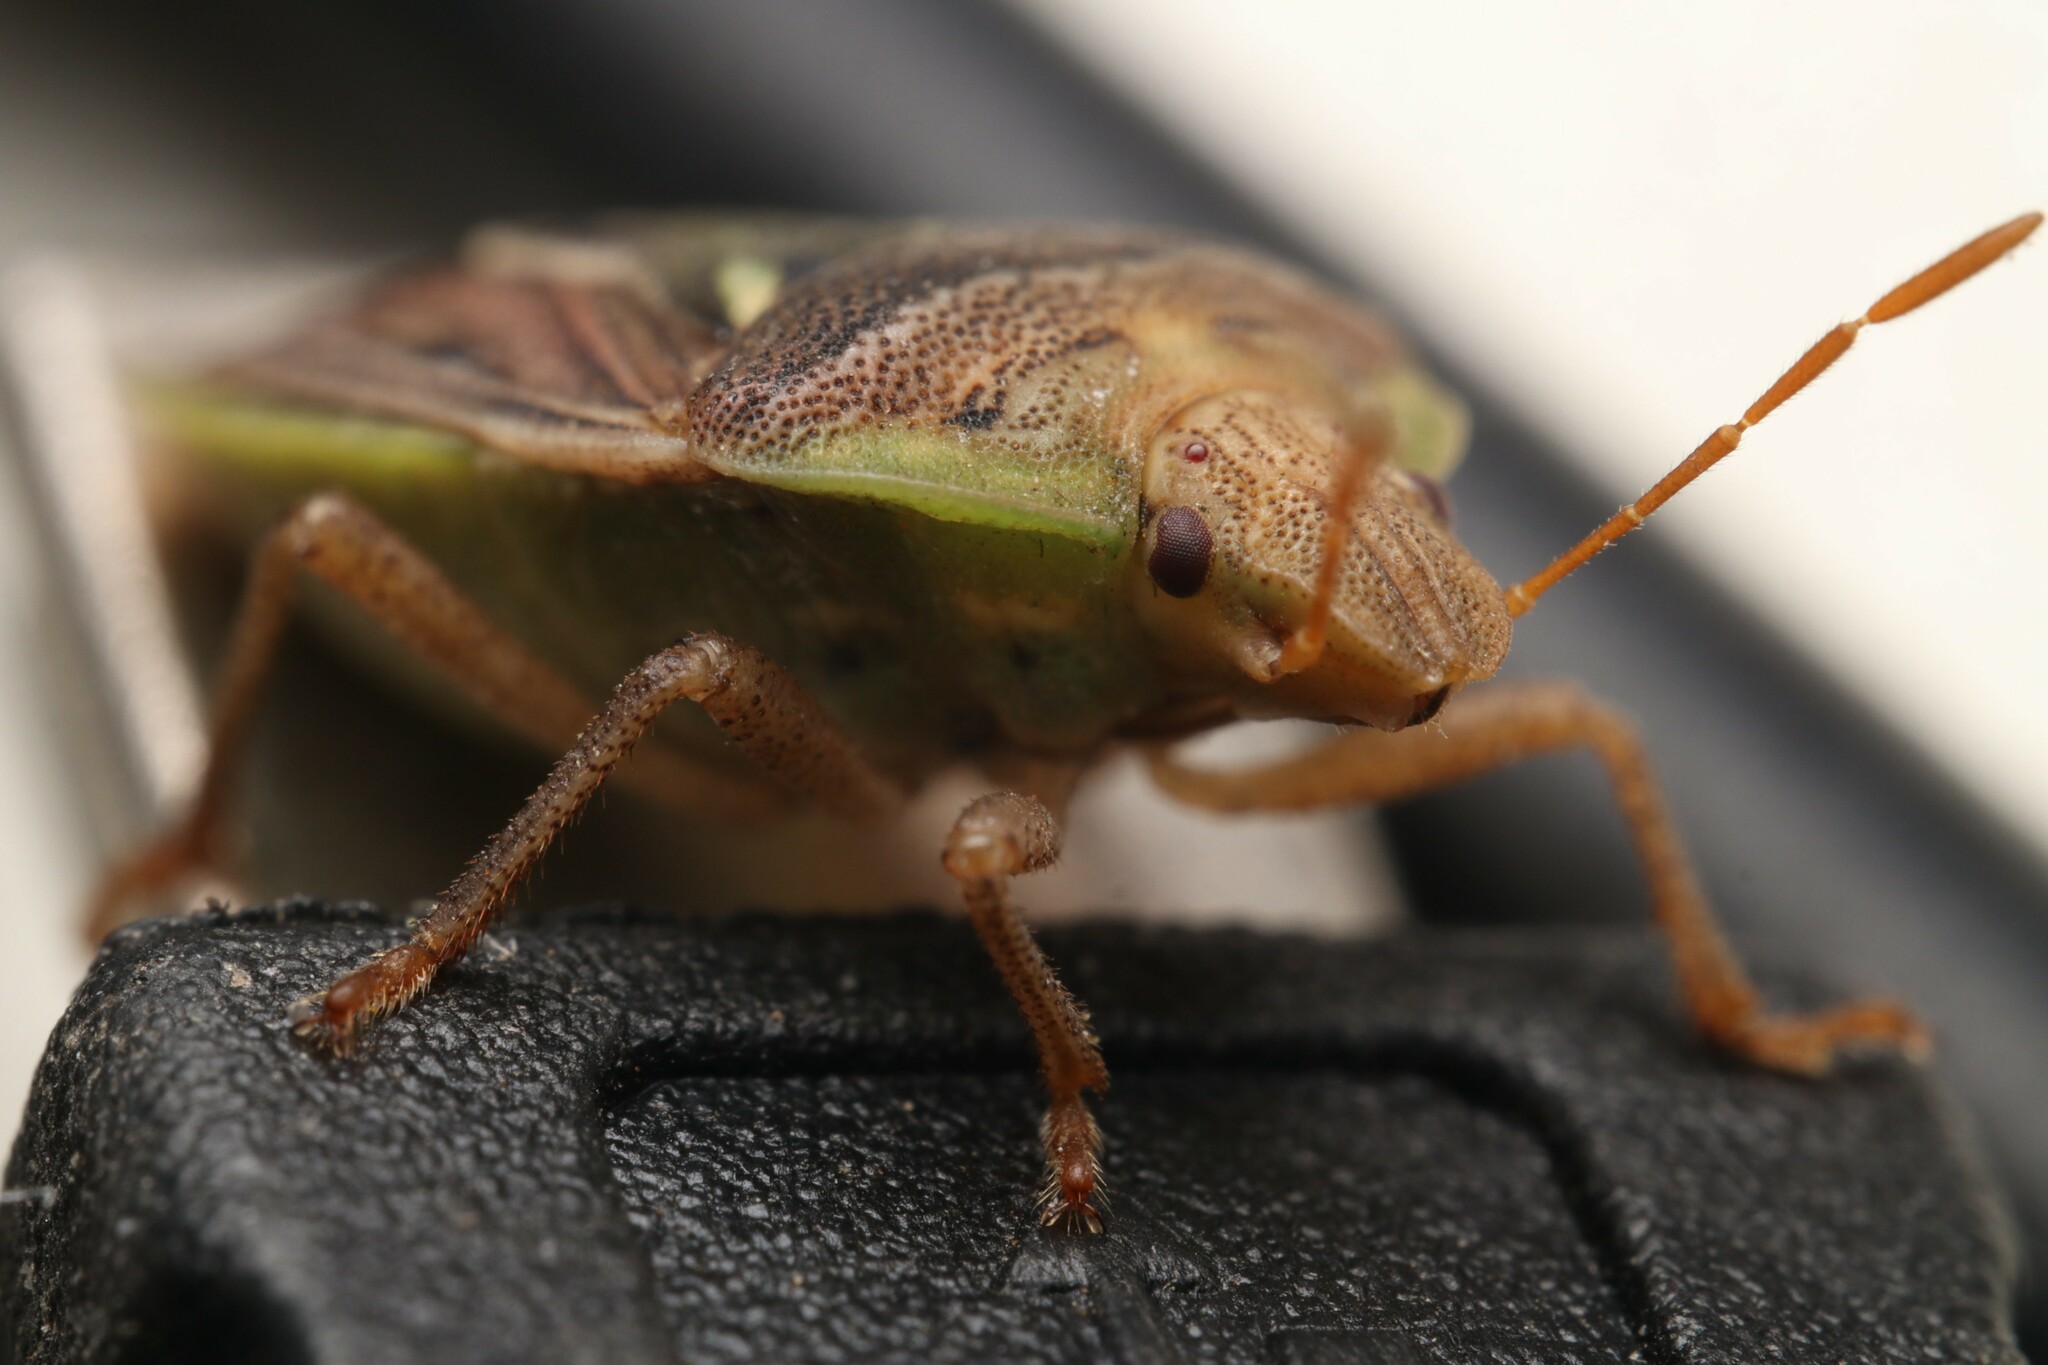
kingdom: Animalia
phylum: Arthropoda
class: Insecta
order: Hemiptera
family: Pentatomidae
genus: Acledra
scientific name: Acledra
